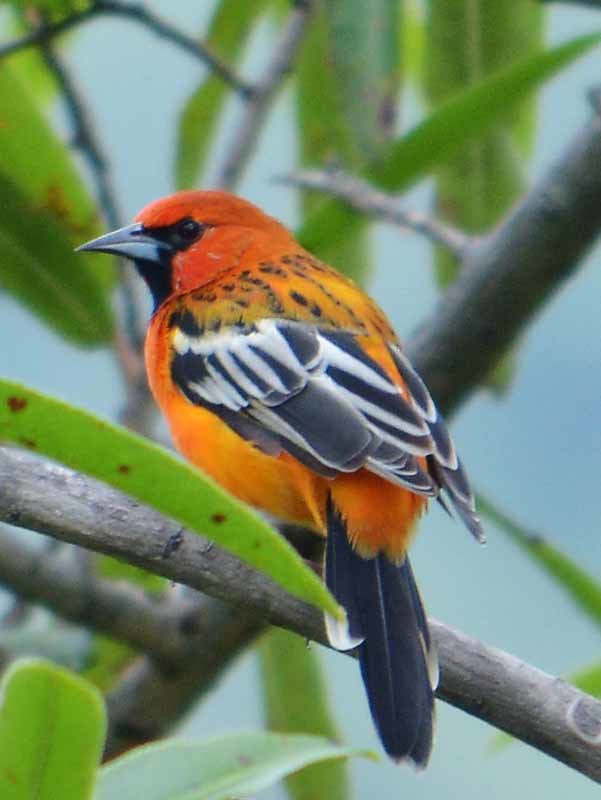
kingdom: Animalia
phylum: Chordata
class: Aves
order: Passeriformes
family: Icteridae
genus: Icterus
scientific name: Icterus pustulatus
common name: Streak-backed oriole
